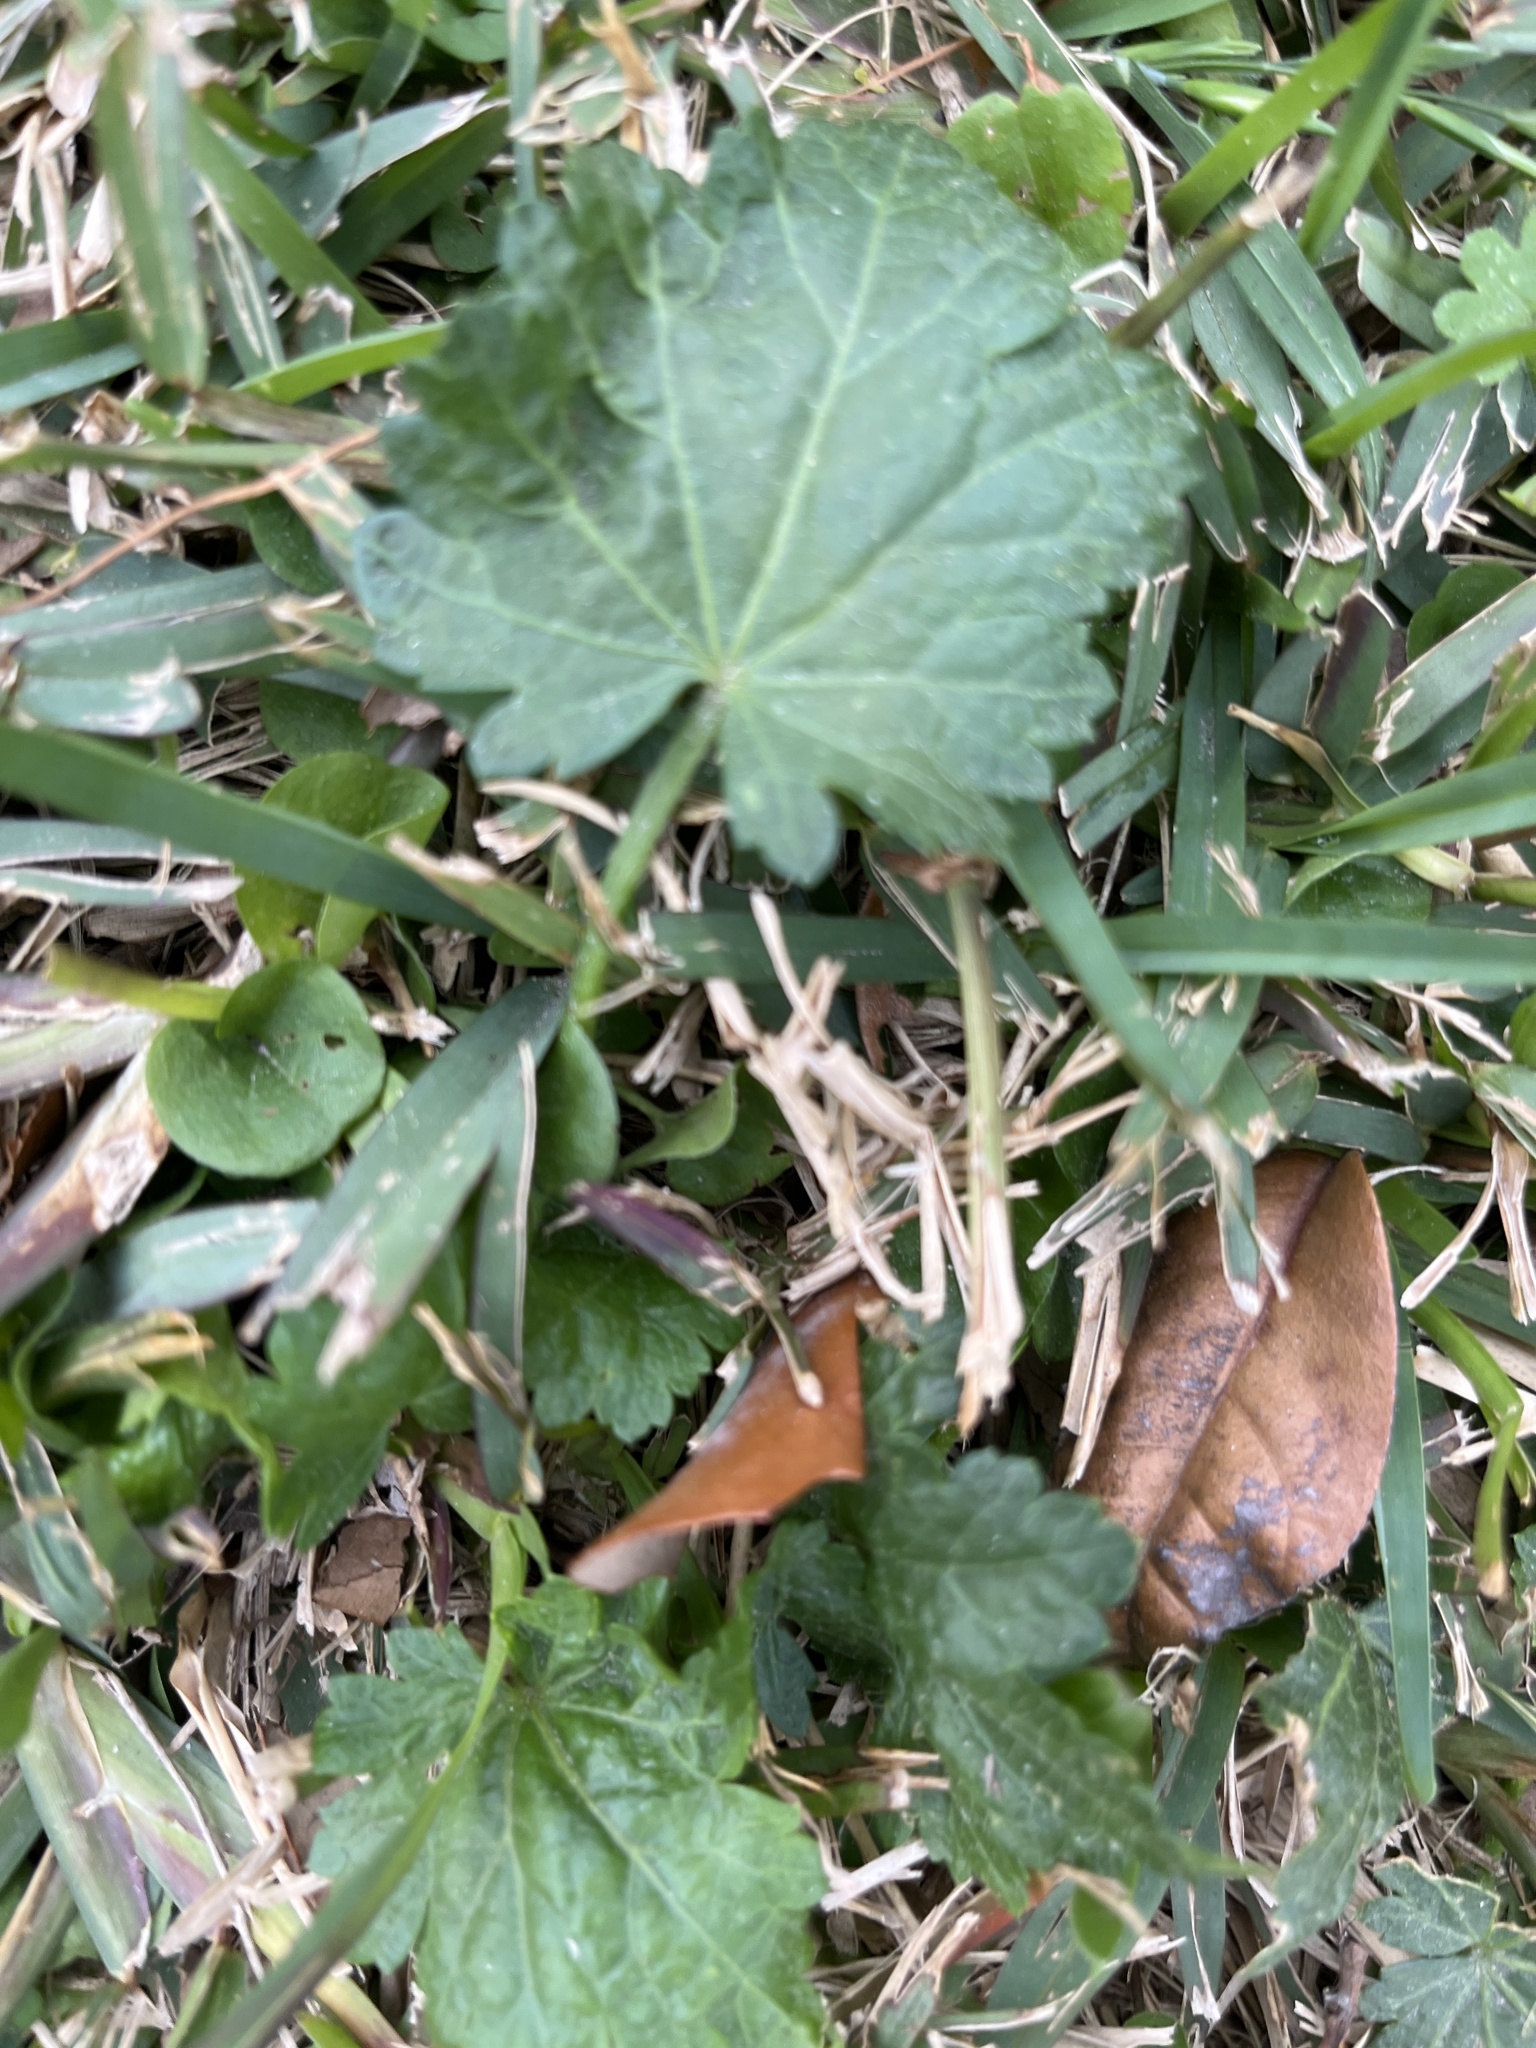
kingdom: Plantae
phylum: Tracheophyta
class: Magnoliopsida
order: Malvales
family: Malvaceae
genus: Modiola
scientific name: Modiola caroliniana
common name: Carolina bristlemallow
